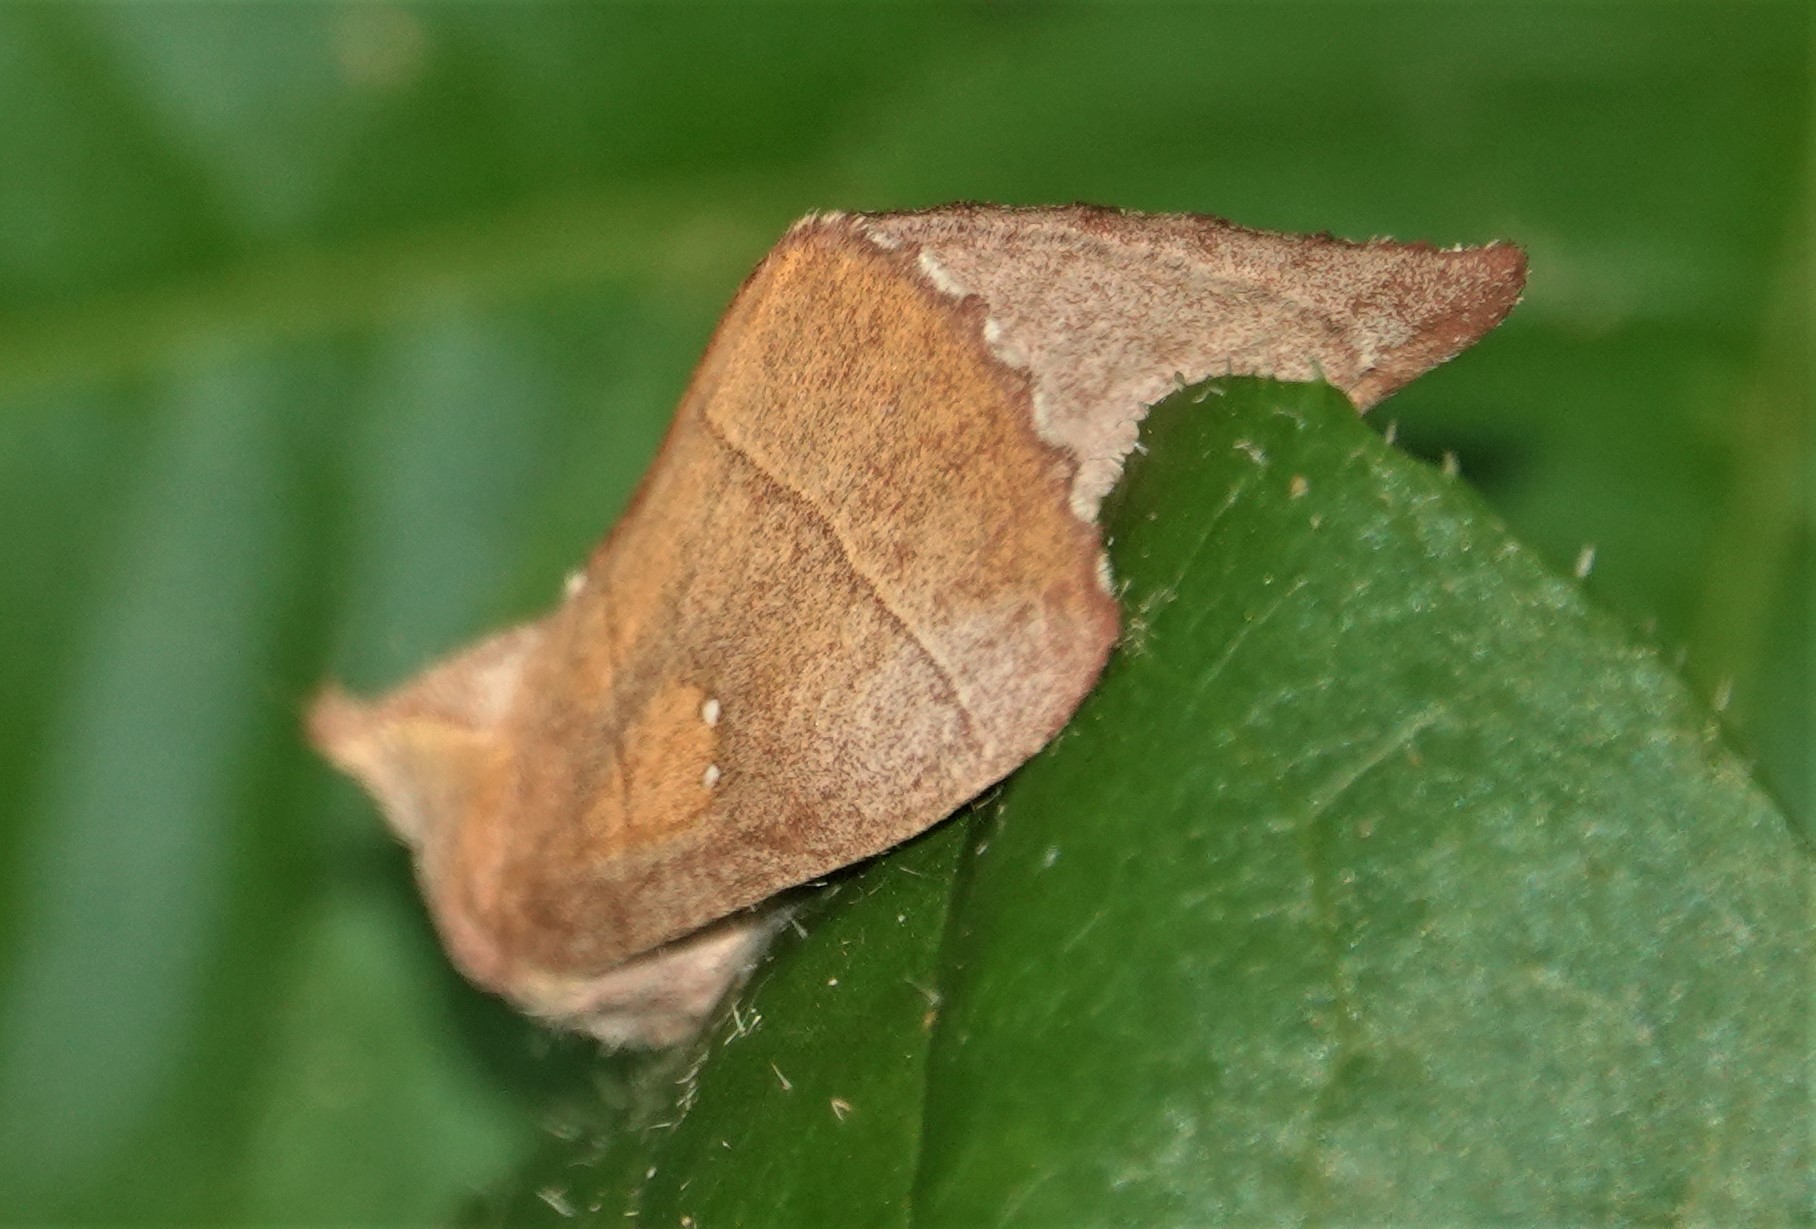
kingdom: Animalia
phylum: Arthropoda
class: Insecta
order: Lepidoptera
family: Notodontidae
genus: Nadata
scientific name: Nadata gibbosa
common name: White-dotted prominent
